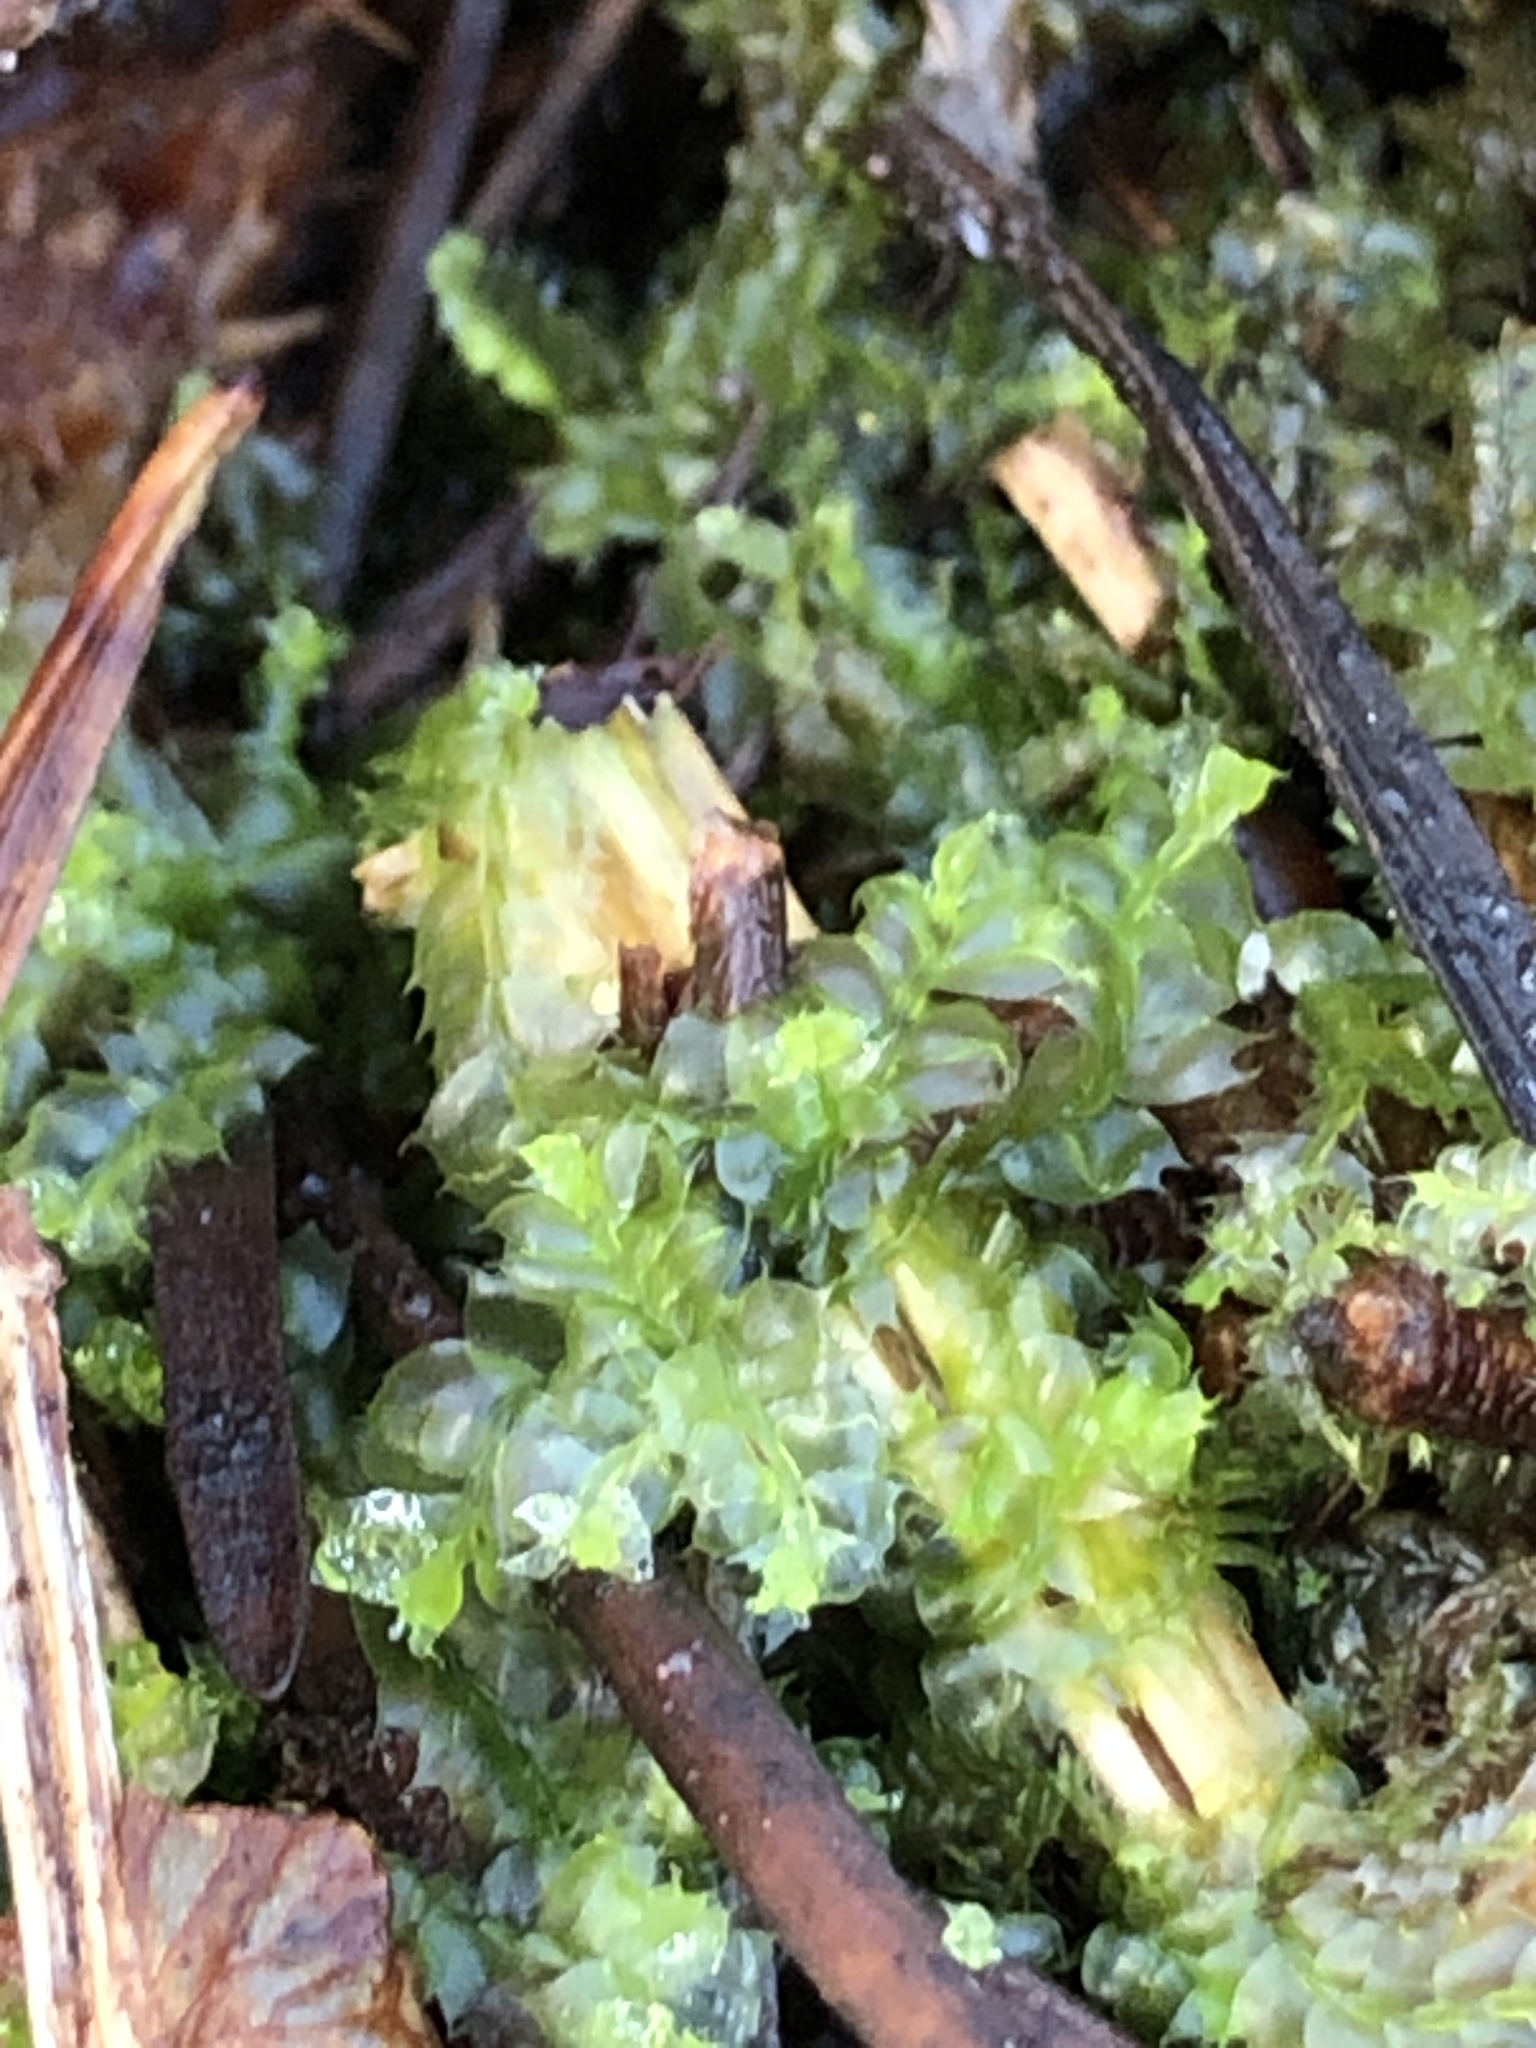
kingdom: Plantae
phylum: Marchantiophyta
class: Jungermanniopsida
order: Jungermanniales
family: Lophocoleaceae
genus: Lophocolea
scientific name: Lophocolea bidentata
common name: Bifid crestwort
